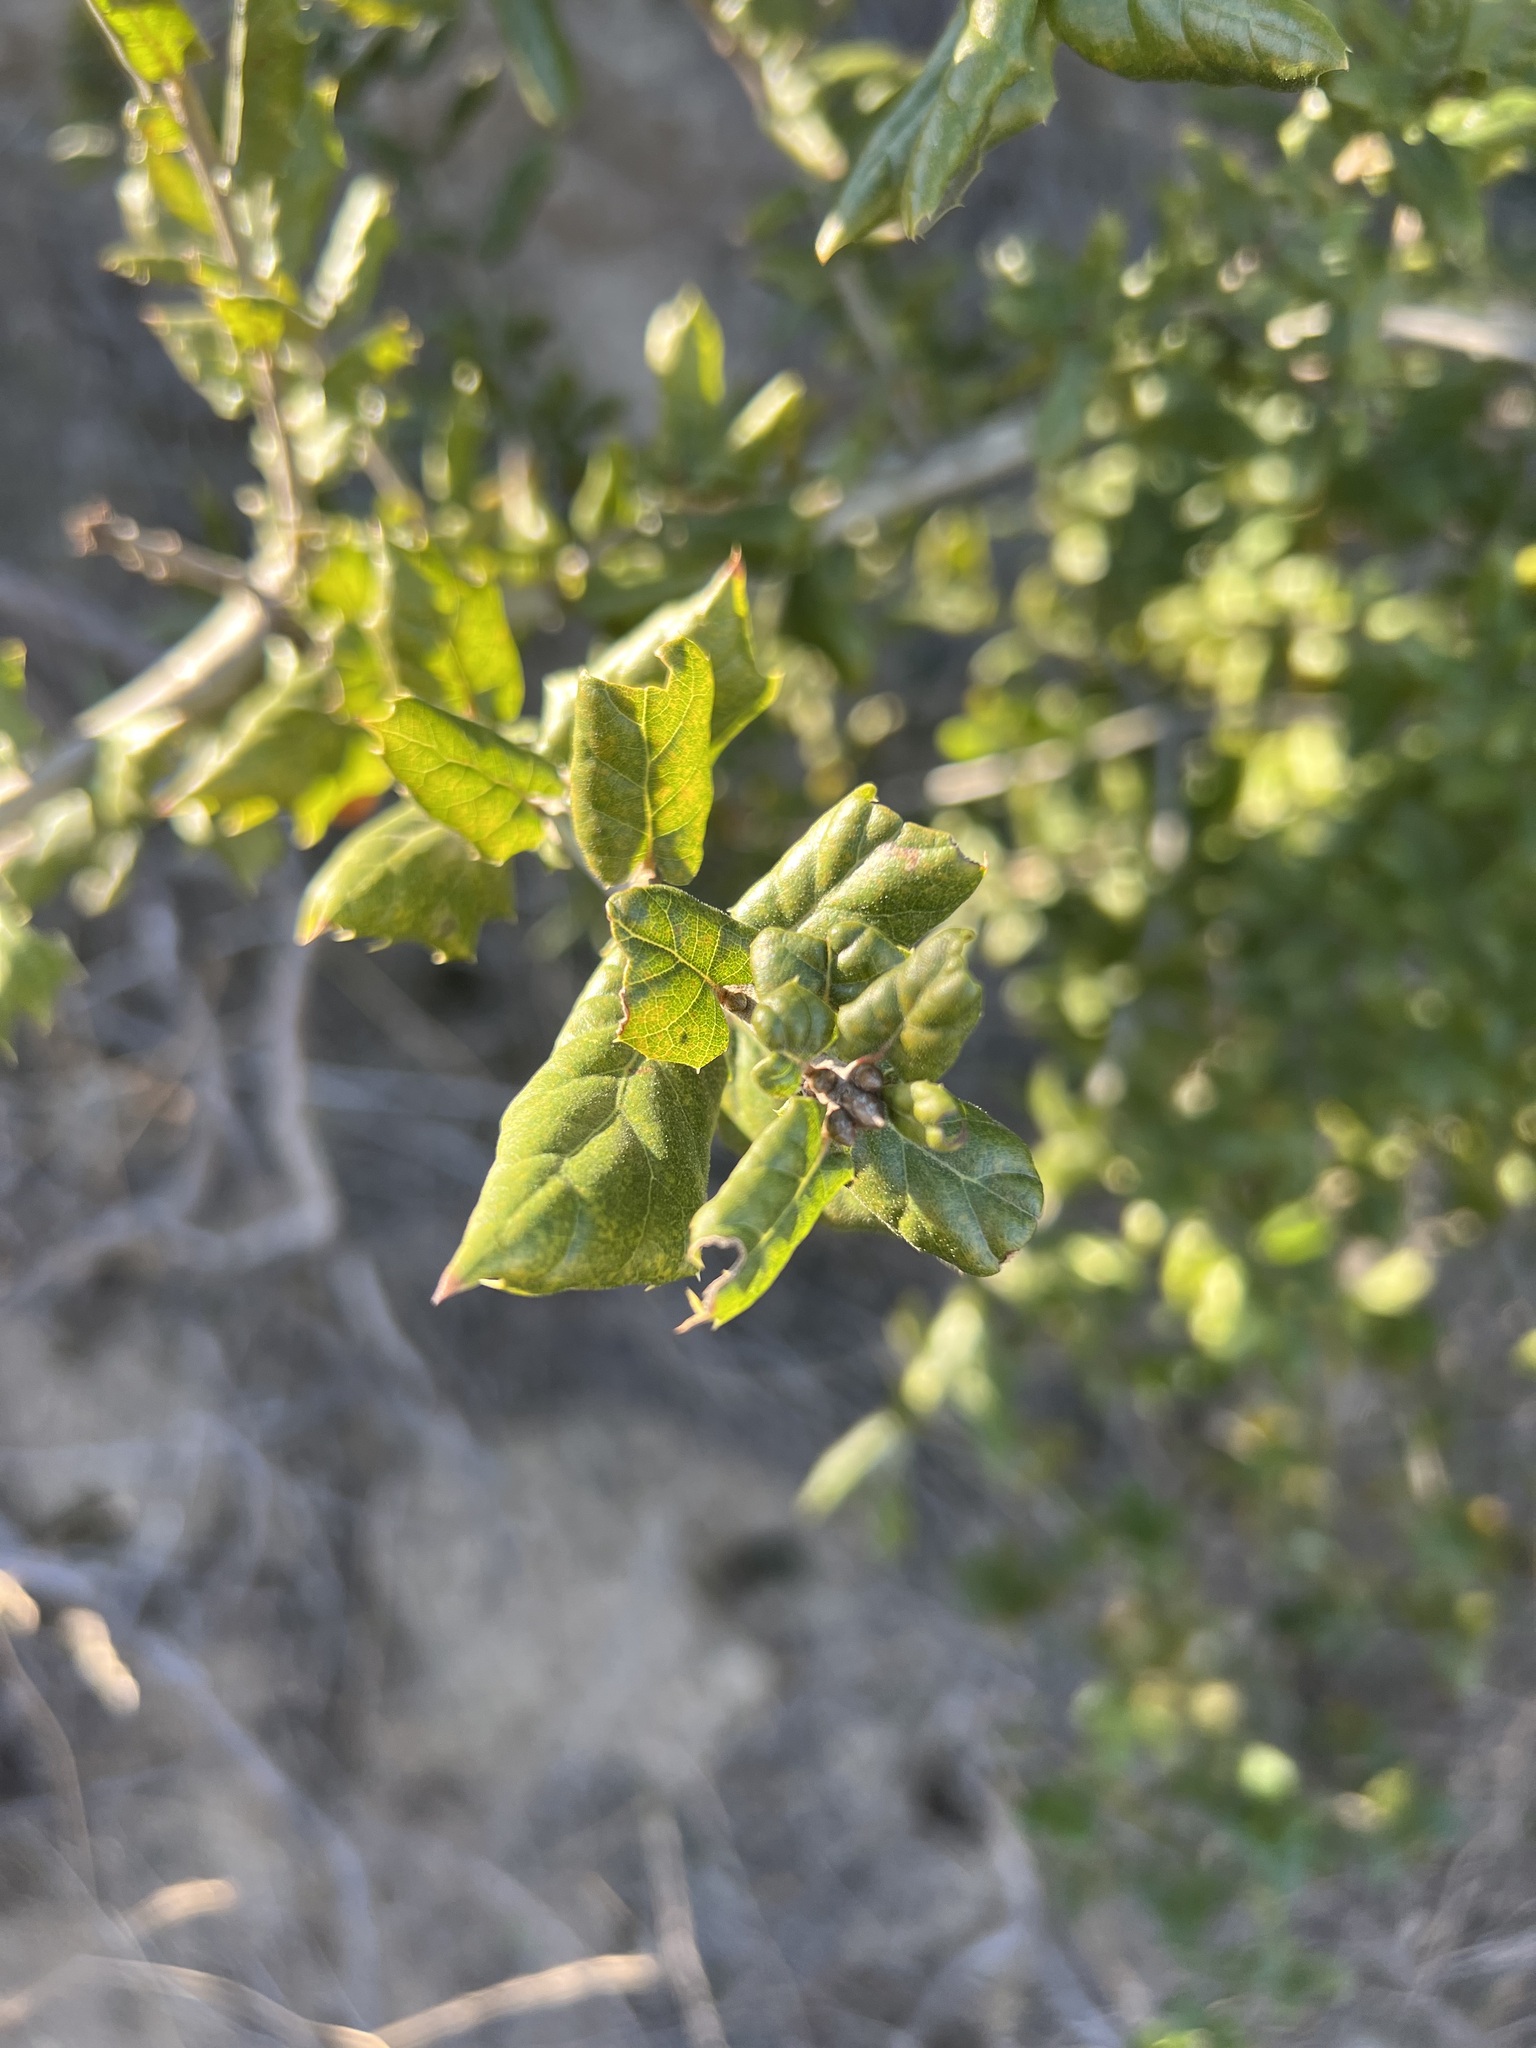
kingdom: Plantae
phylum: Tracheophyta
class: Magnoliopsida
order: Fagales
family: Fagaceae
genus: Quercus
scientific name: Quercus agrifolia
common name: California live oak
